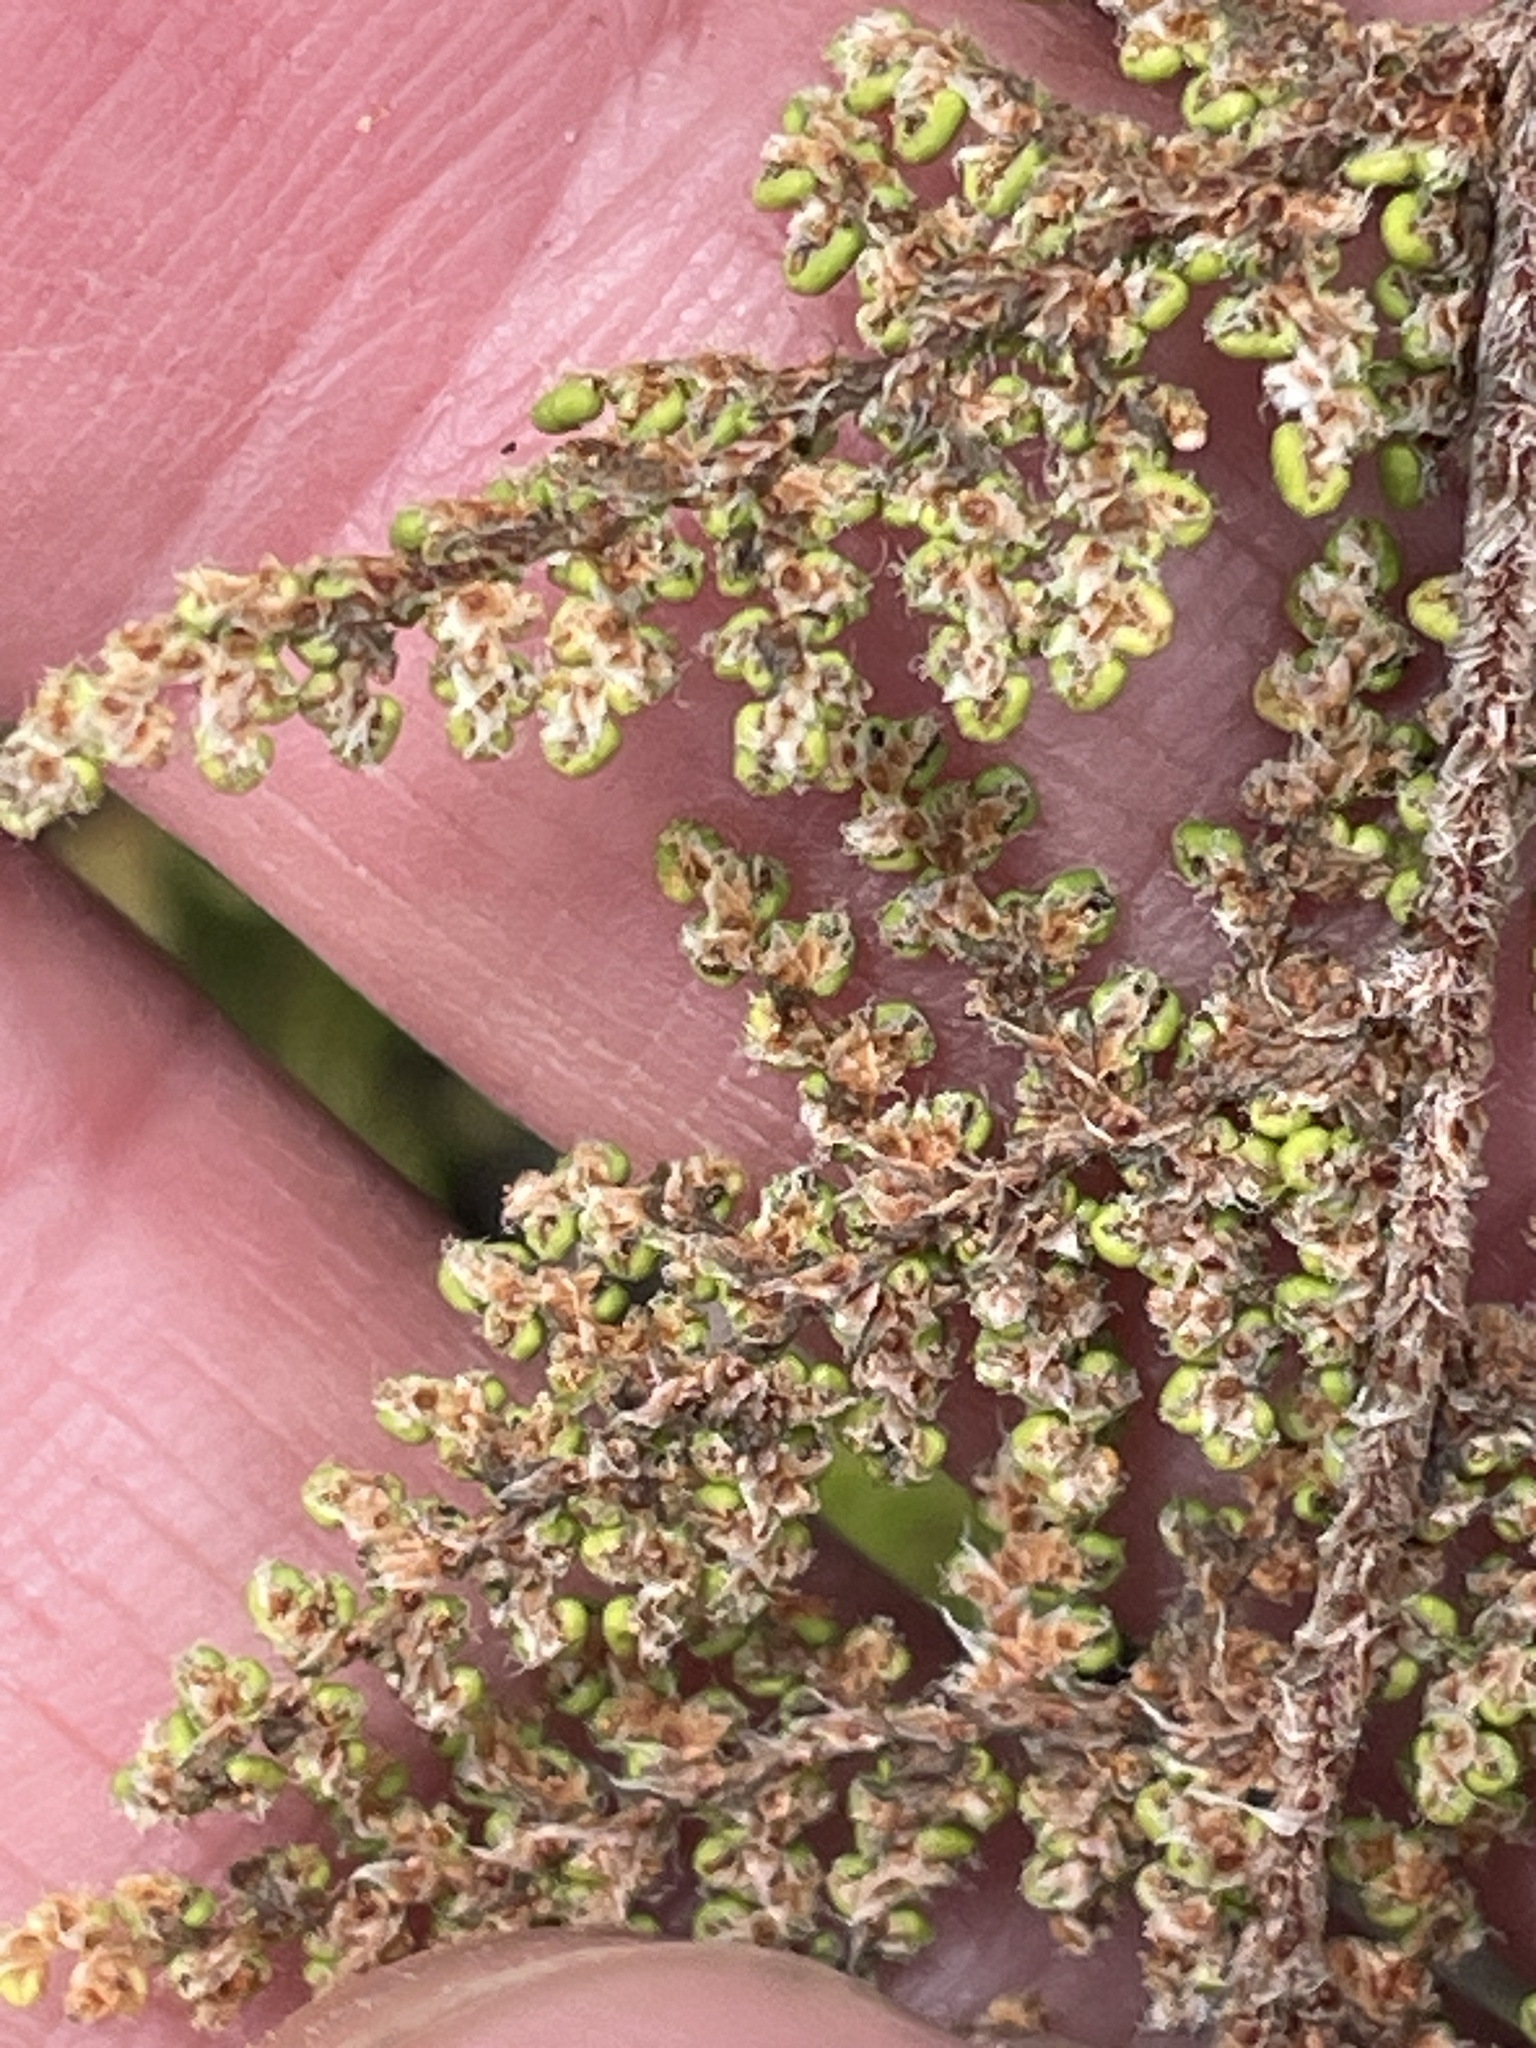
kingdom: Plantae
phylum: Tracheophyta
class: Polypodiopsida
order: Polypodiales
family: Pteridaceae
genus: Myriopteris
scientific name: Myriopteris myriophylla
